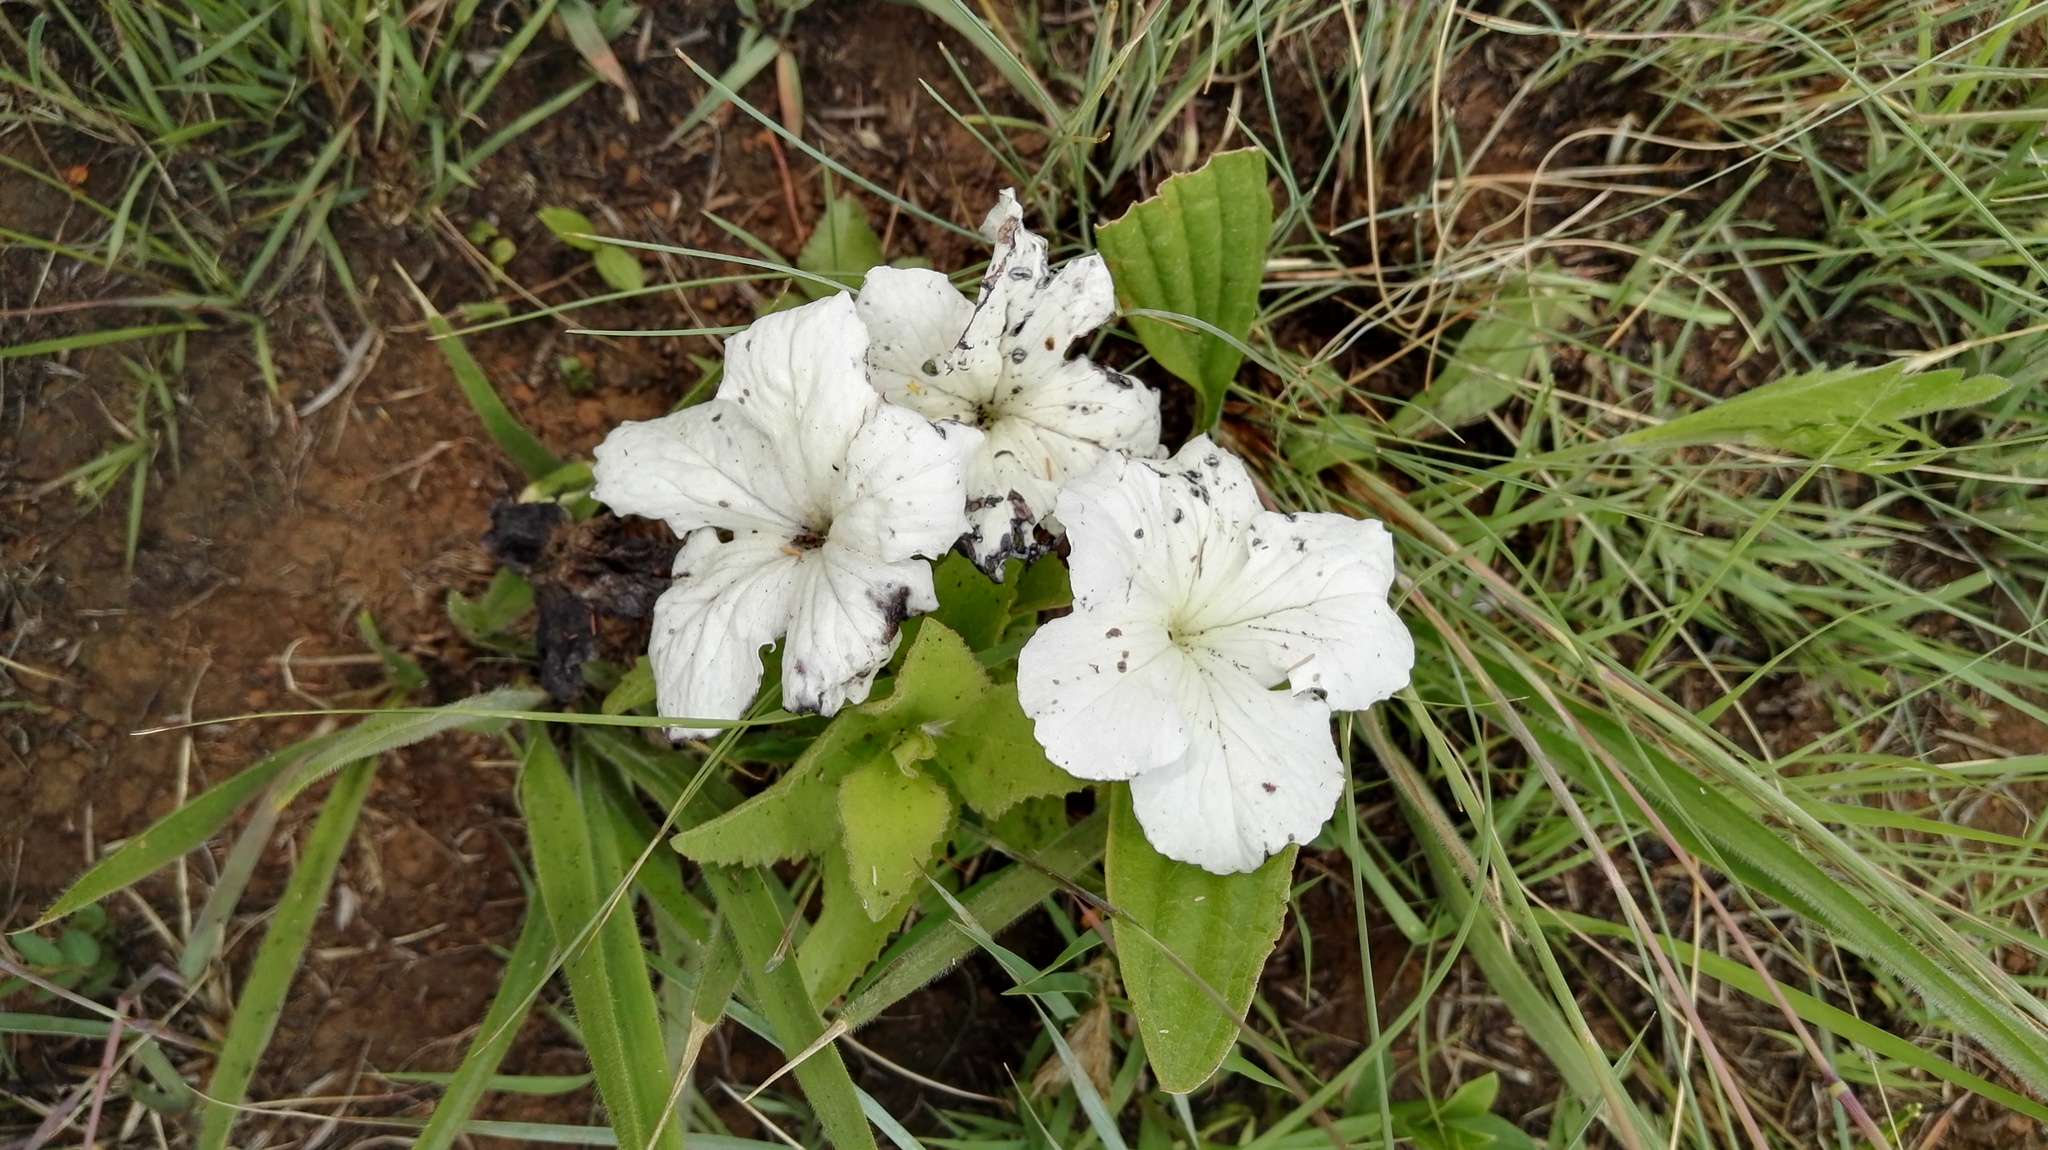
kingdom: Plantae
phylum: Tracheophyta
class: Magnoliopsida
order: Lamiales
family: Orobanchaceae
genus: Cycnium
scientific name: Cycnium adonense
